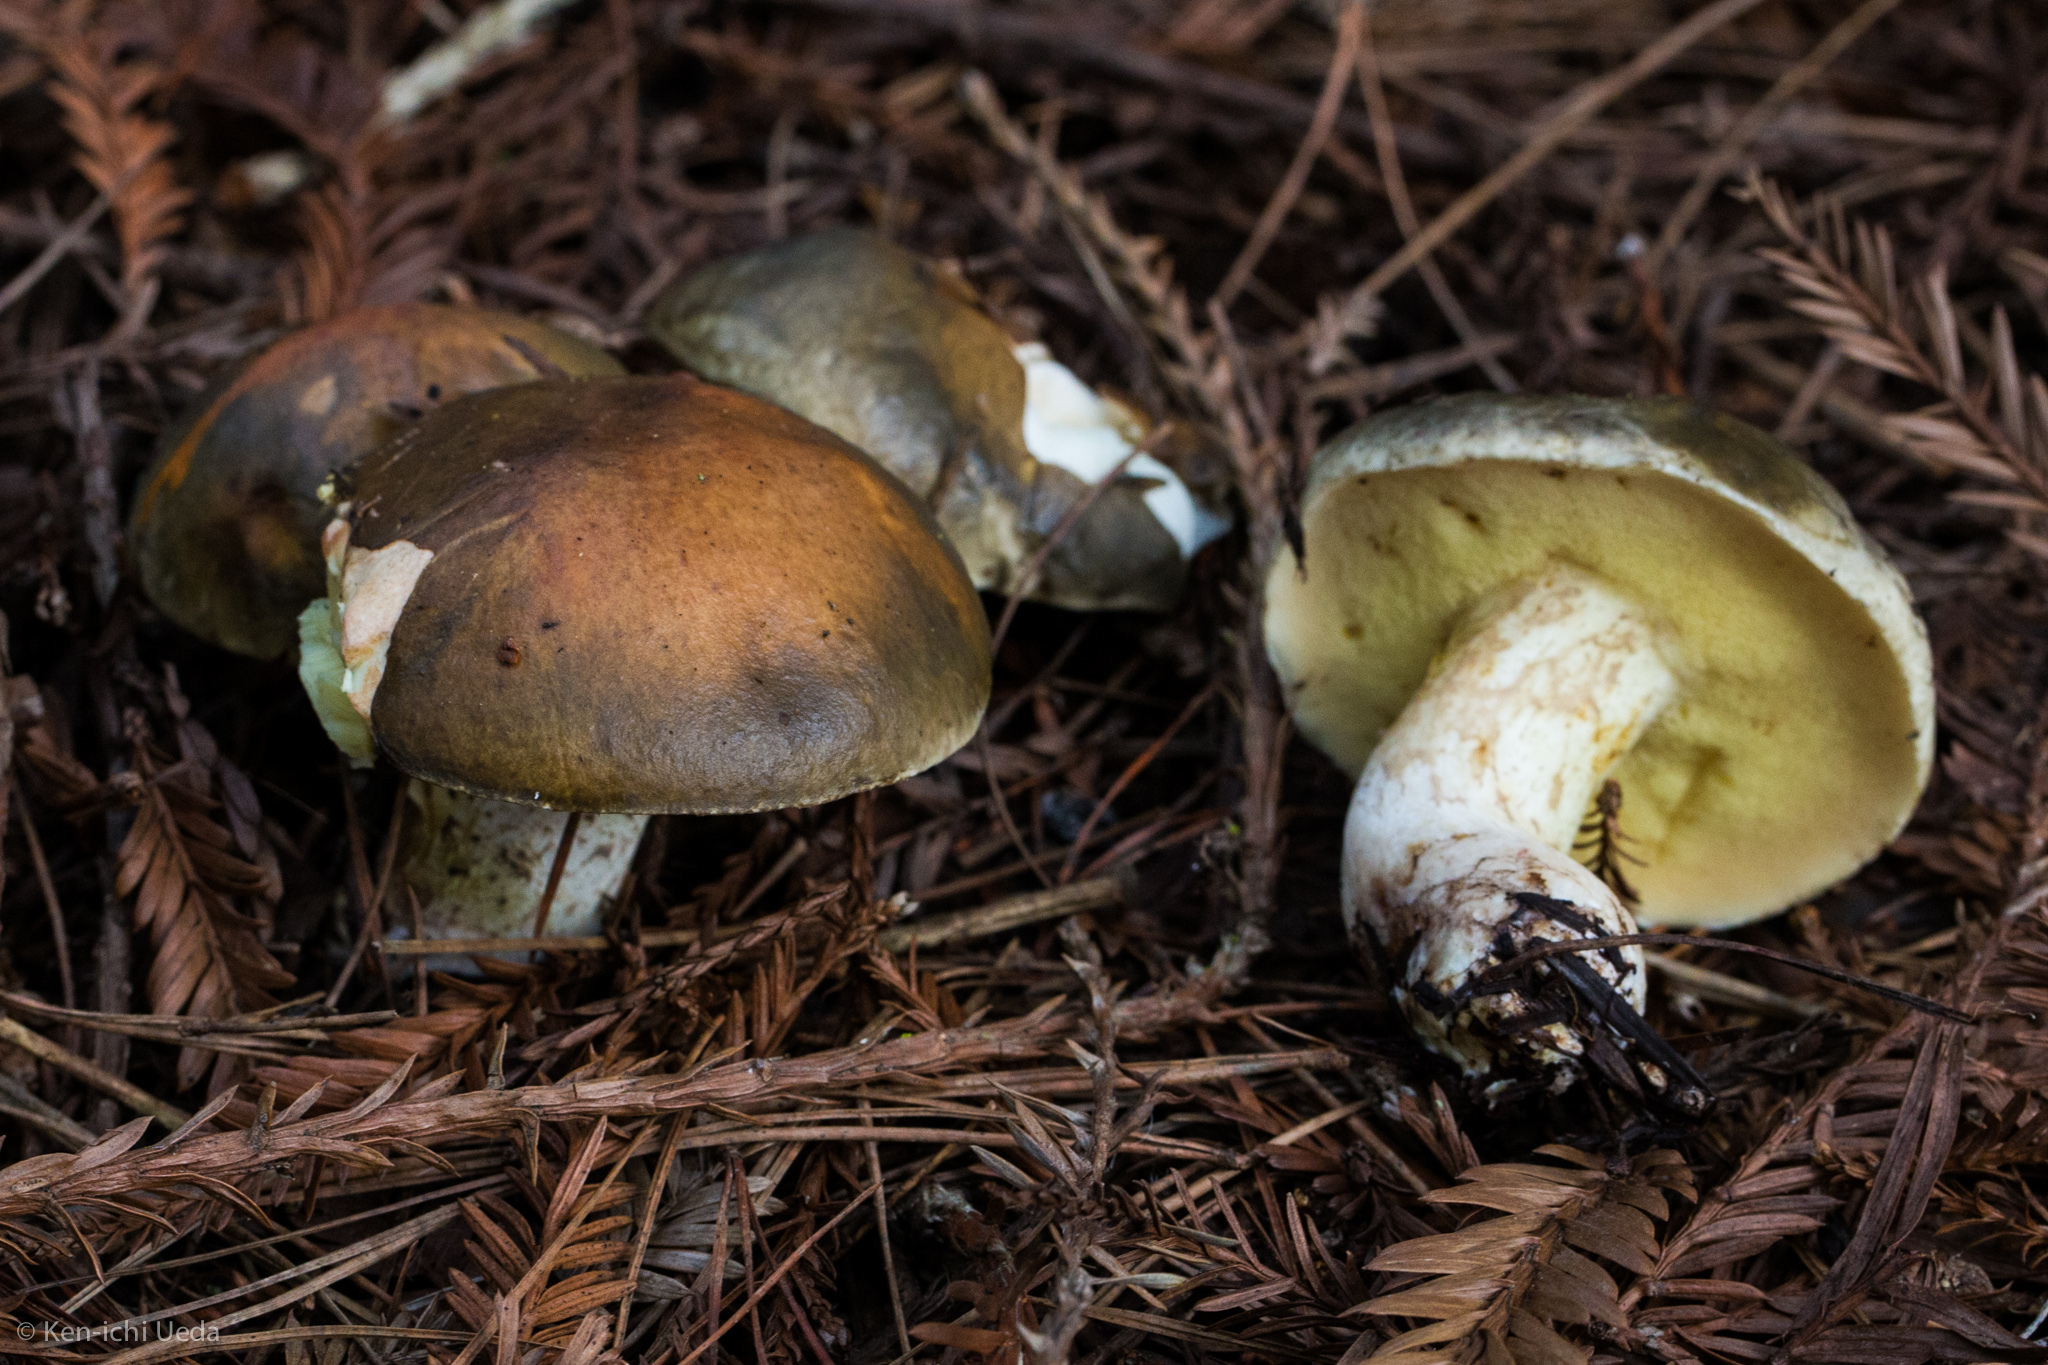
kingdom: Fungi
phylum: Basidiomycota
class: Agaricomycetes
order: Boletales
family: Suillaceae
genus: Suillus
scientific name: Suillus pungens
